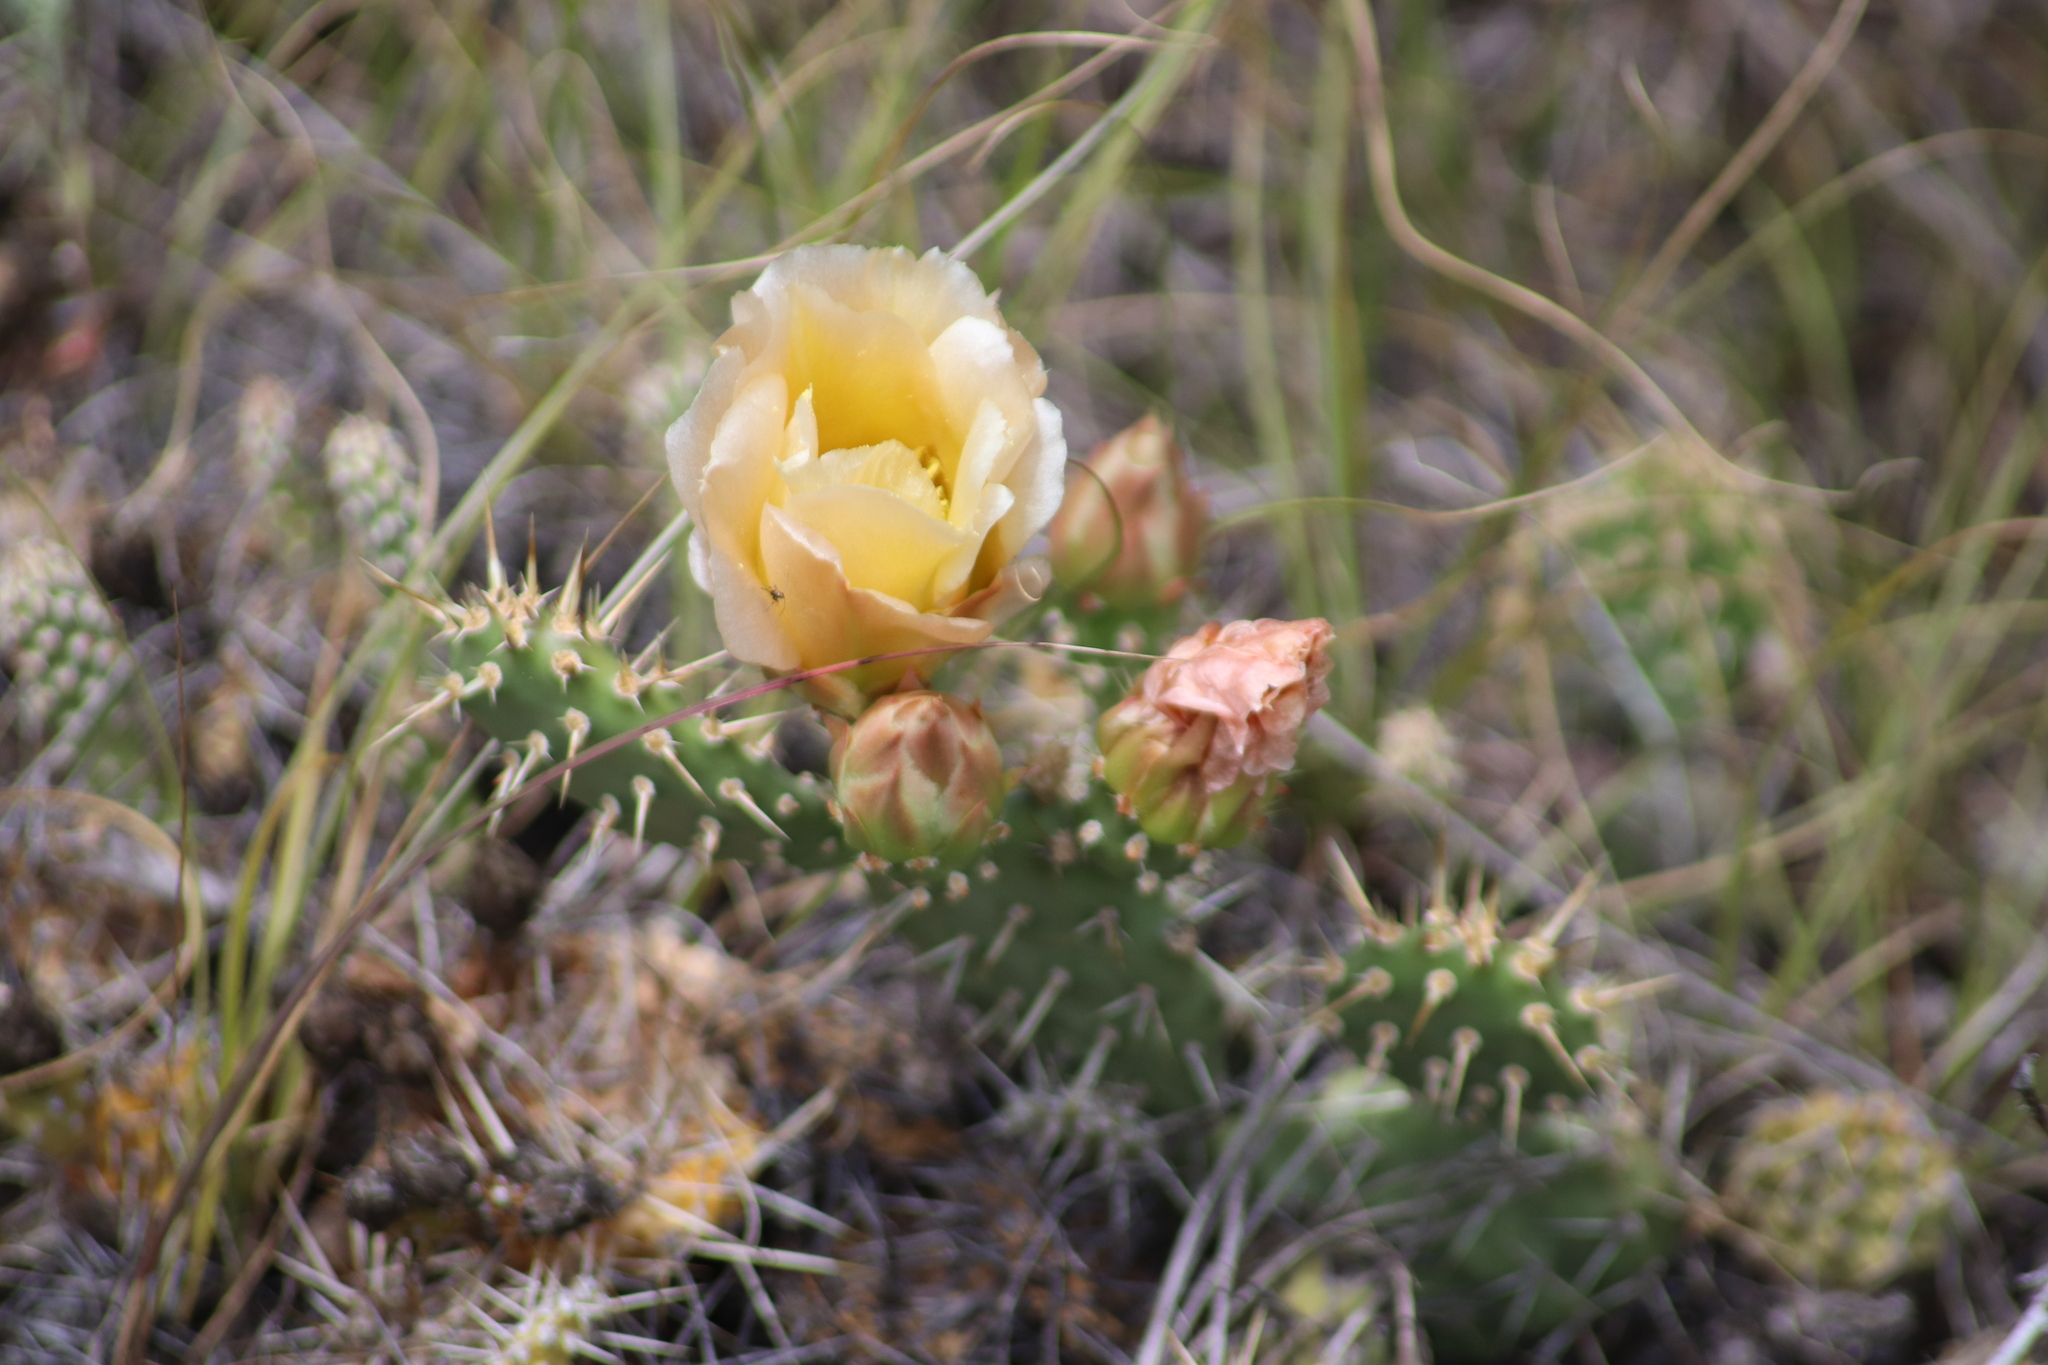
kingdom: Plantae
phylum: Tracheophyta
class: Magnoliopsida
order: Caryophyllales
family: Cactaceae
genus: Opuntia
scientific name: Opuntia fragilis
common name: Brittle cactus
